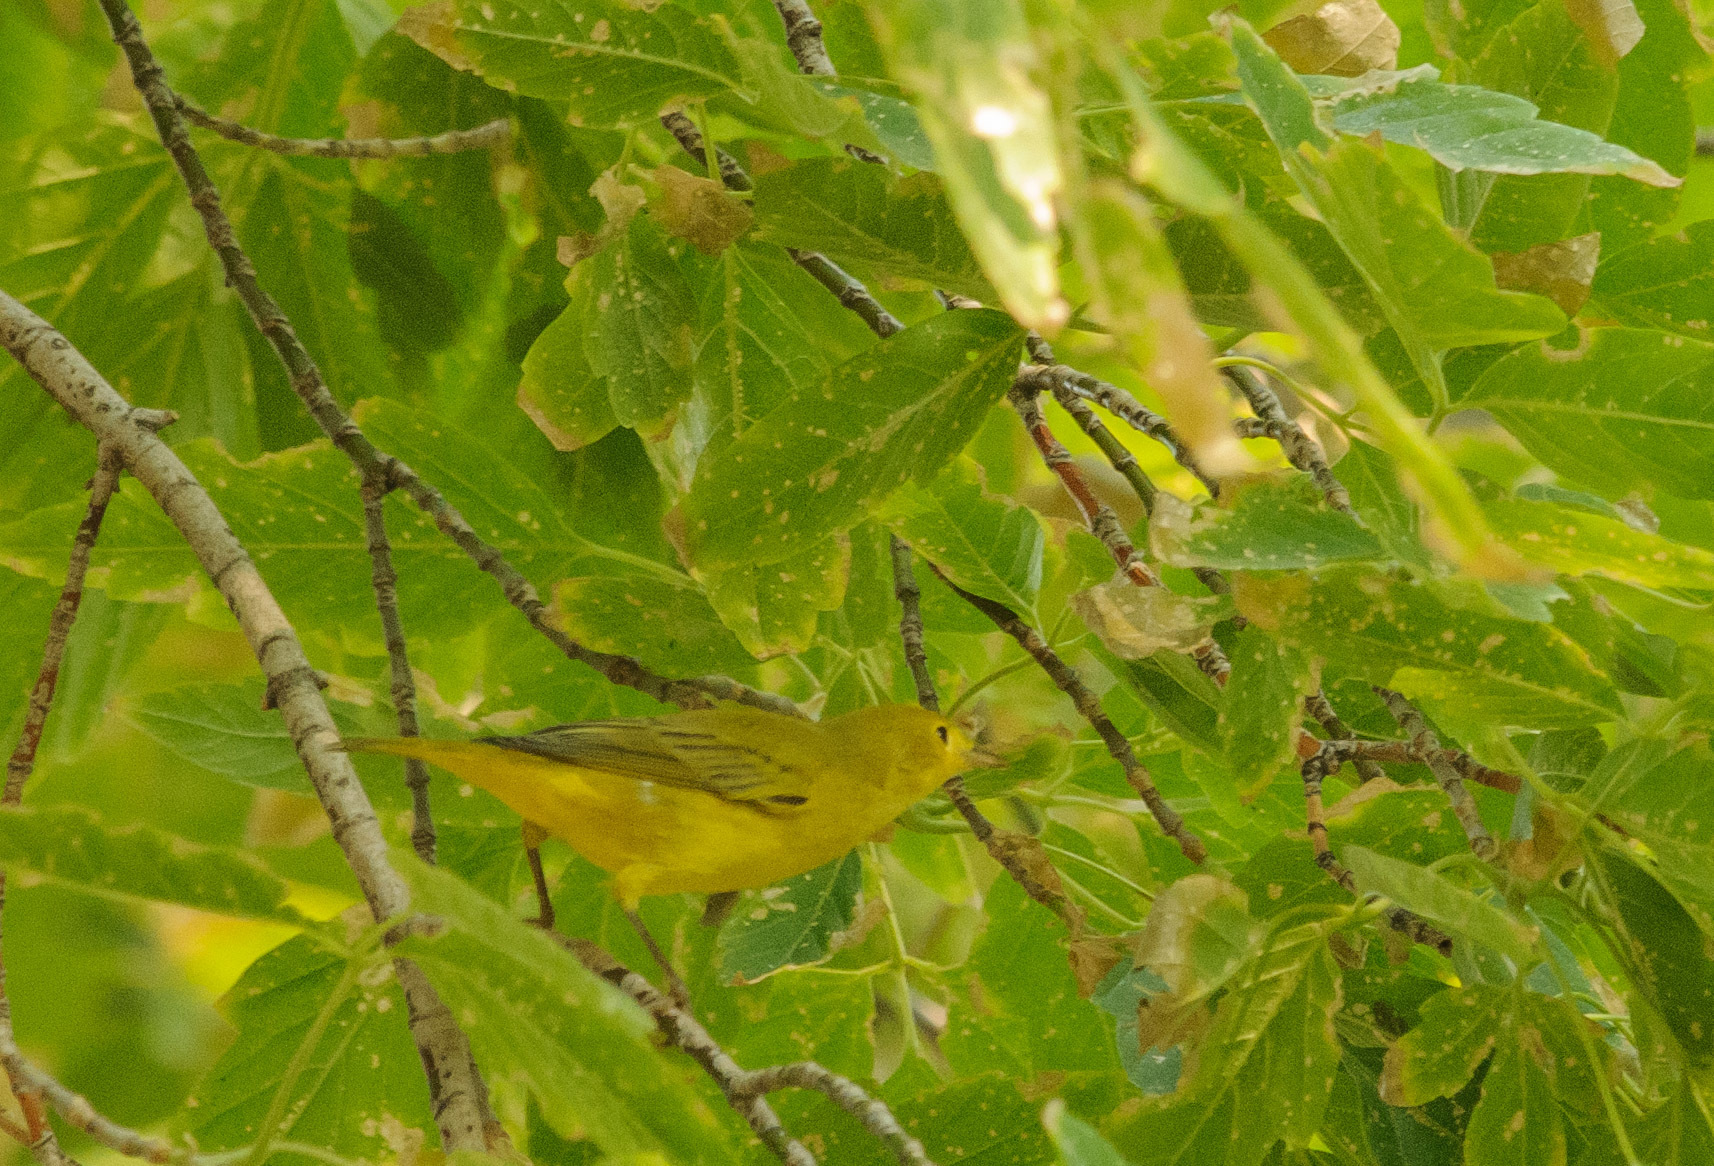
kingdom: Animalia
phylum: Chordata
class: Aves
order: Passeriformes
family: Parulidae
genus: Setophaga
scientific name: Setophaga petechia
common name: Yellow warbler
